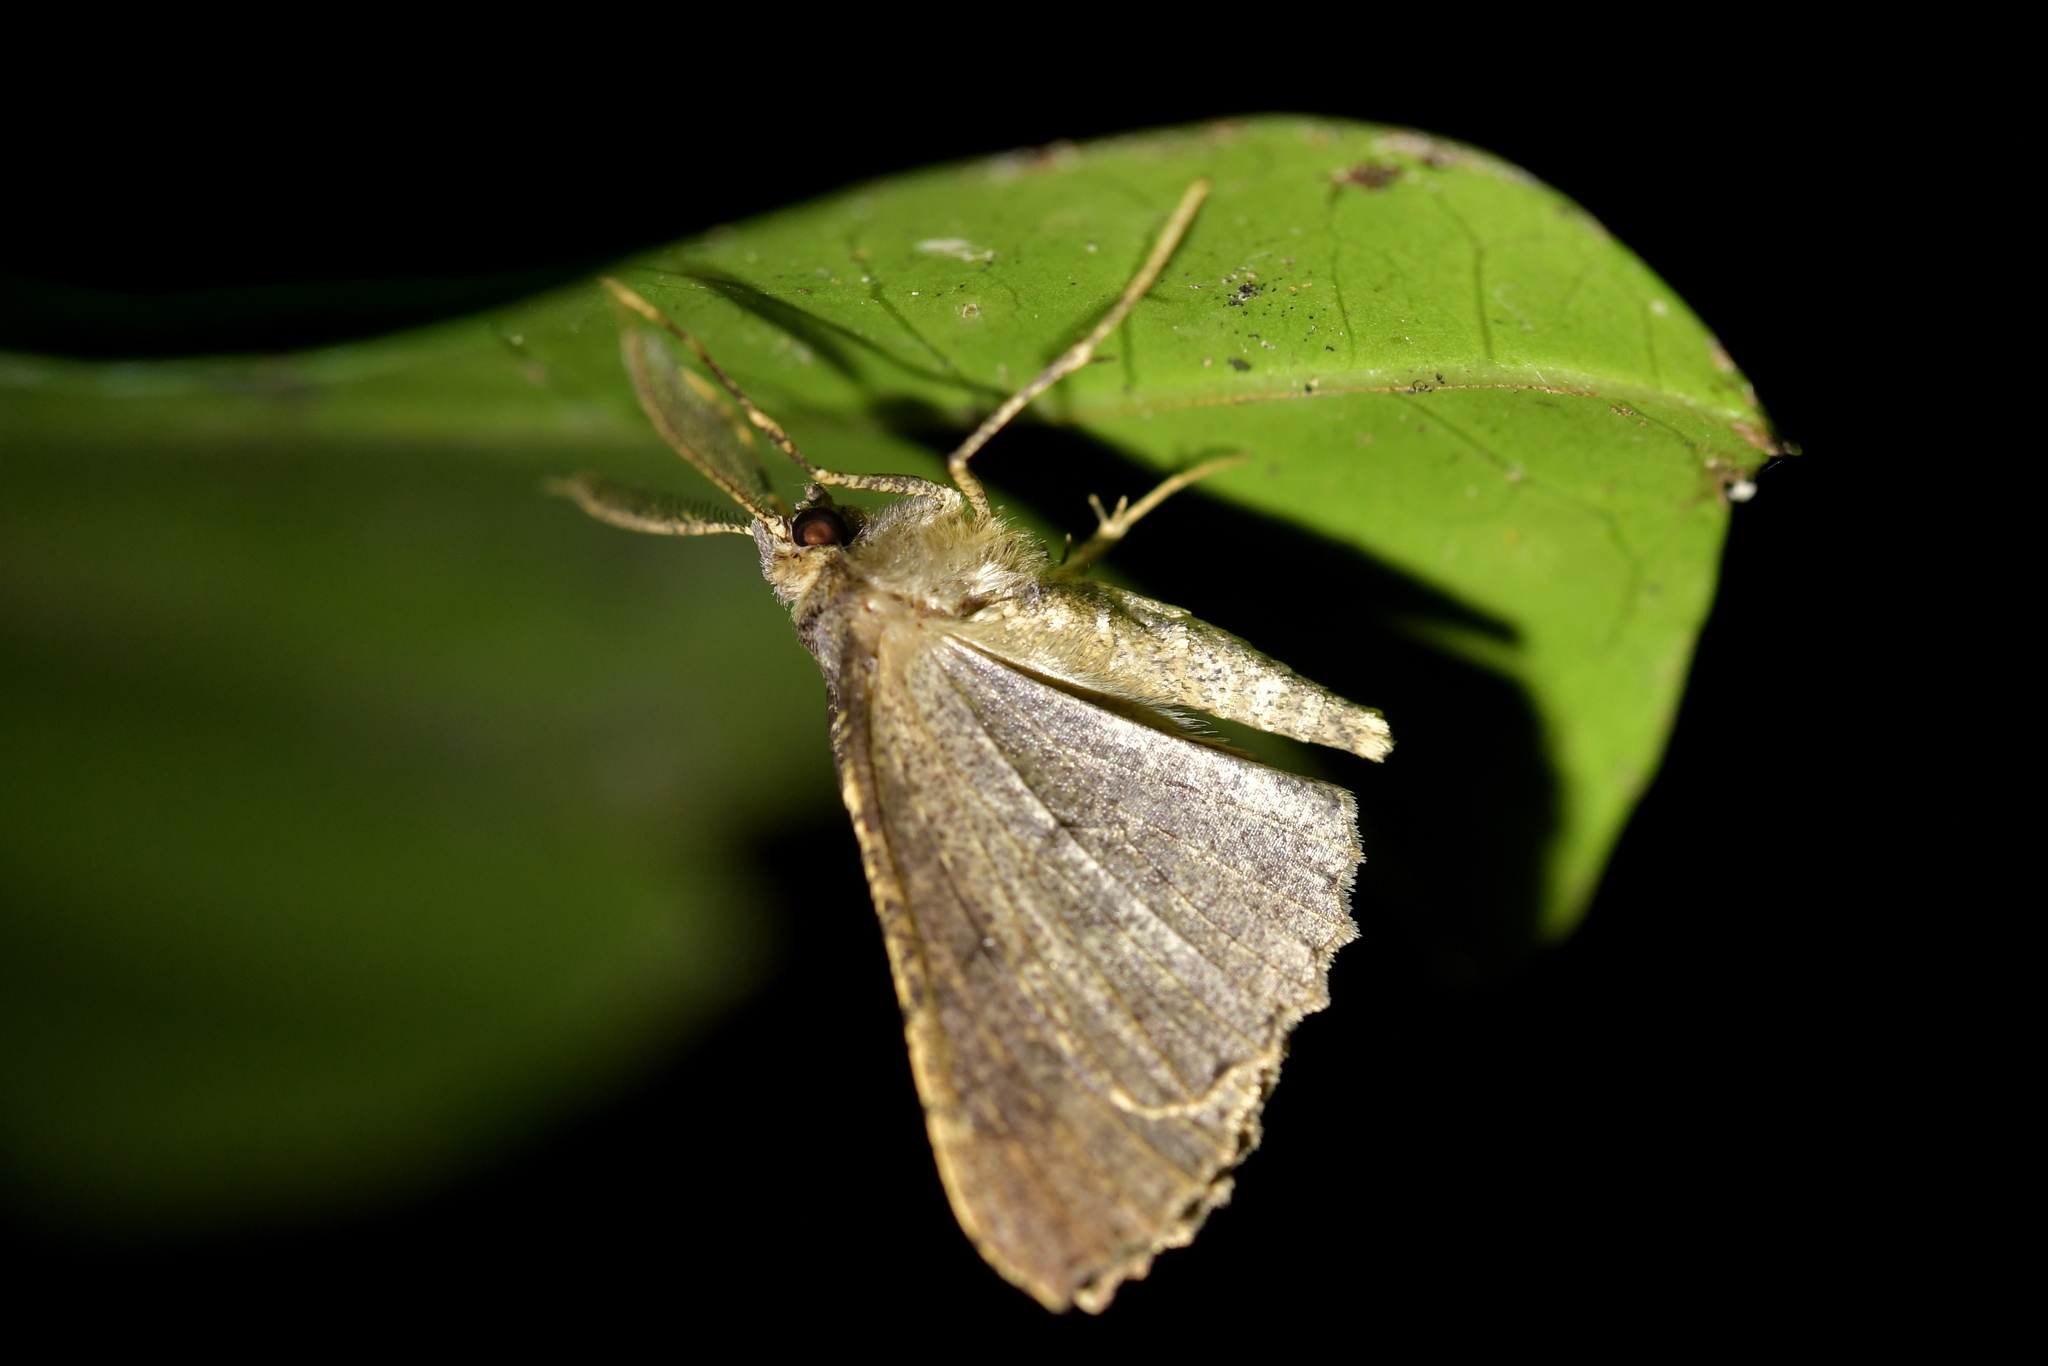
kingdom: Animalia
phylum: Arthropoda
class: Insecta
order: Lepidoptera
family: Geometridae
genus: Cleora
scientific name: Cleora scriptaria
